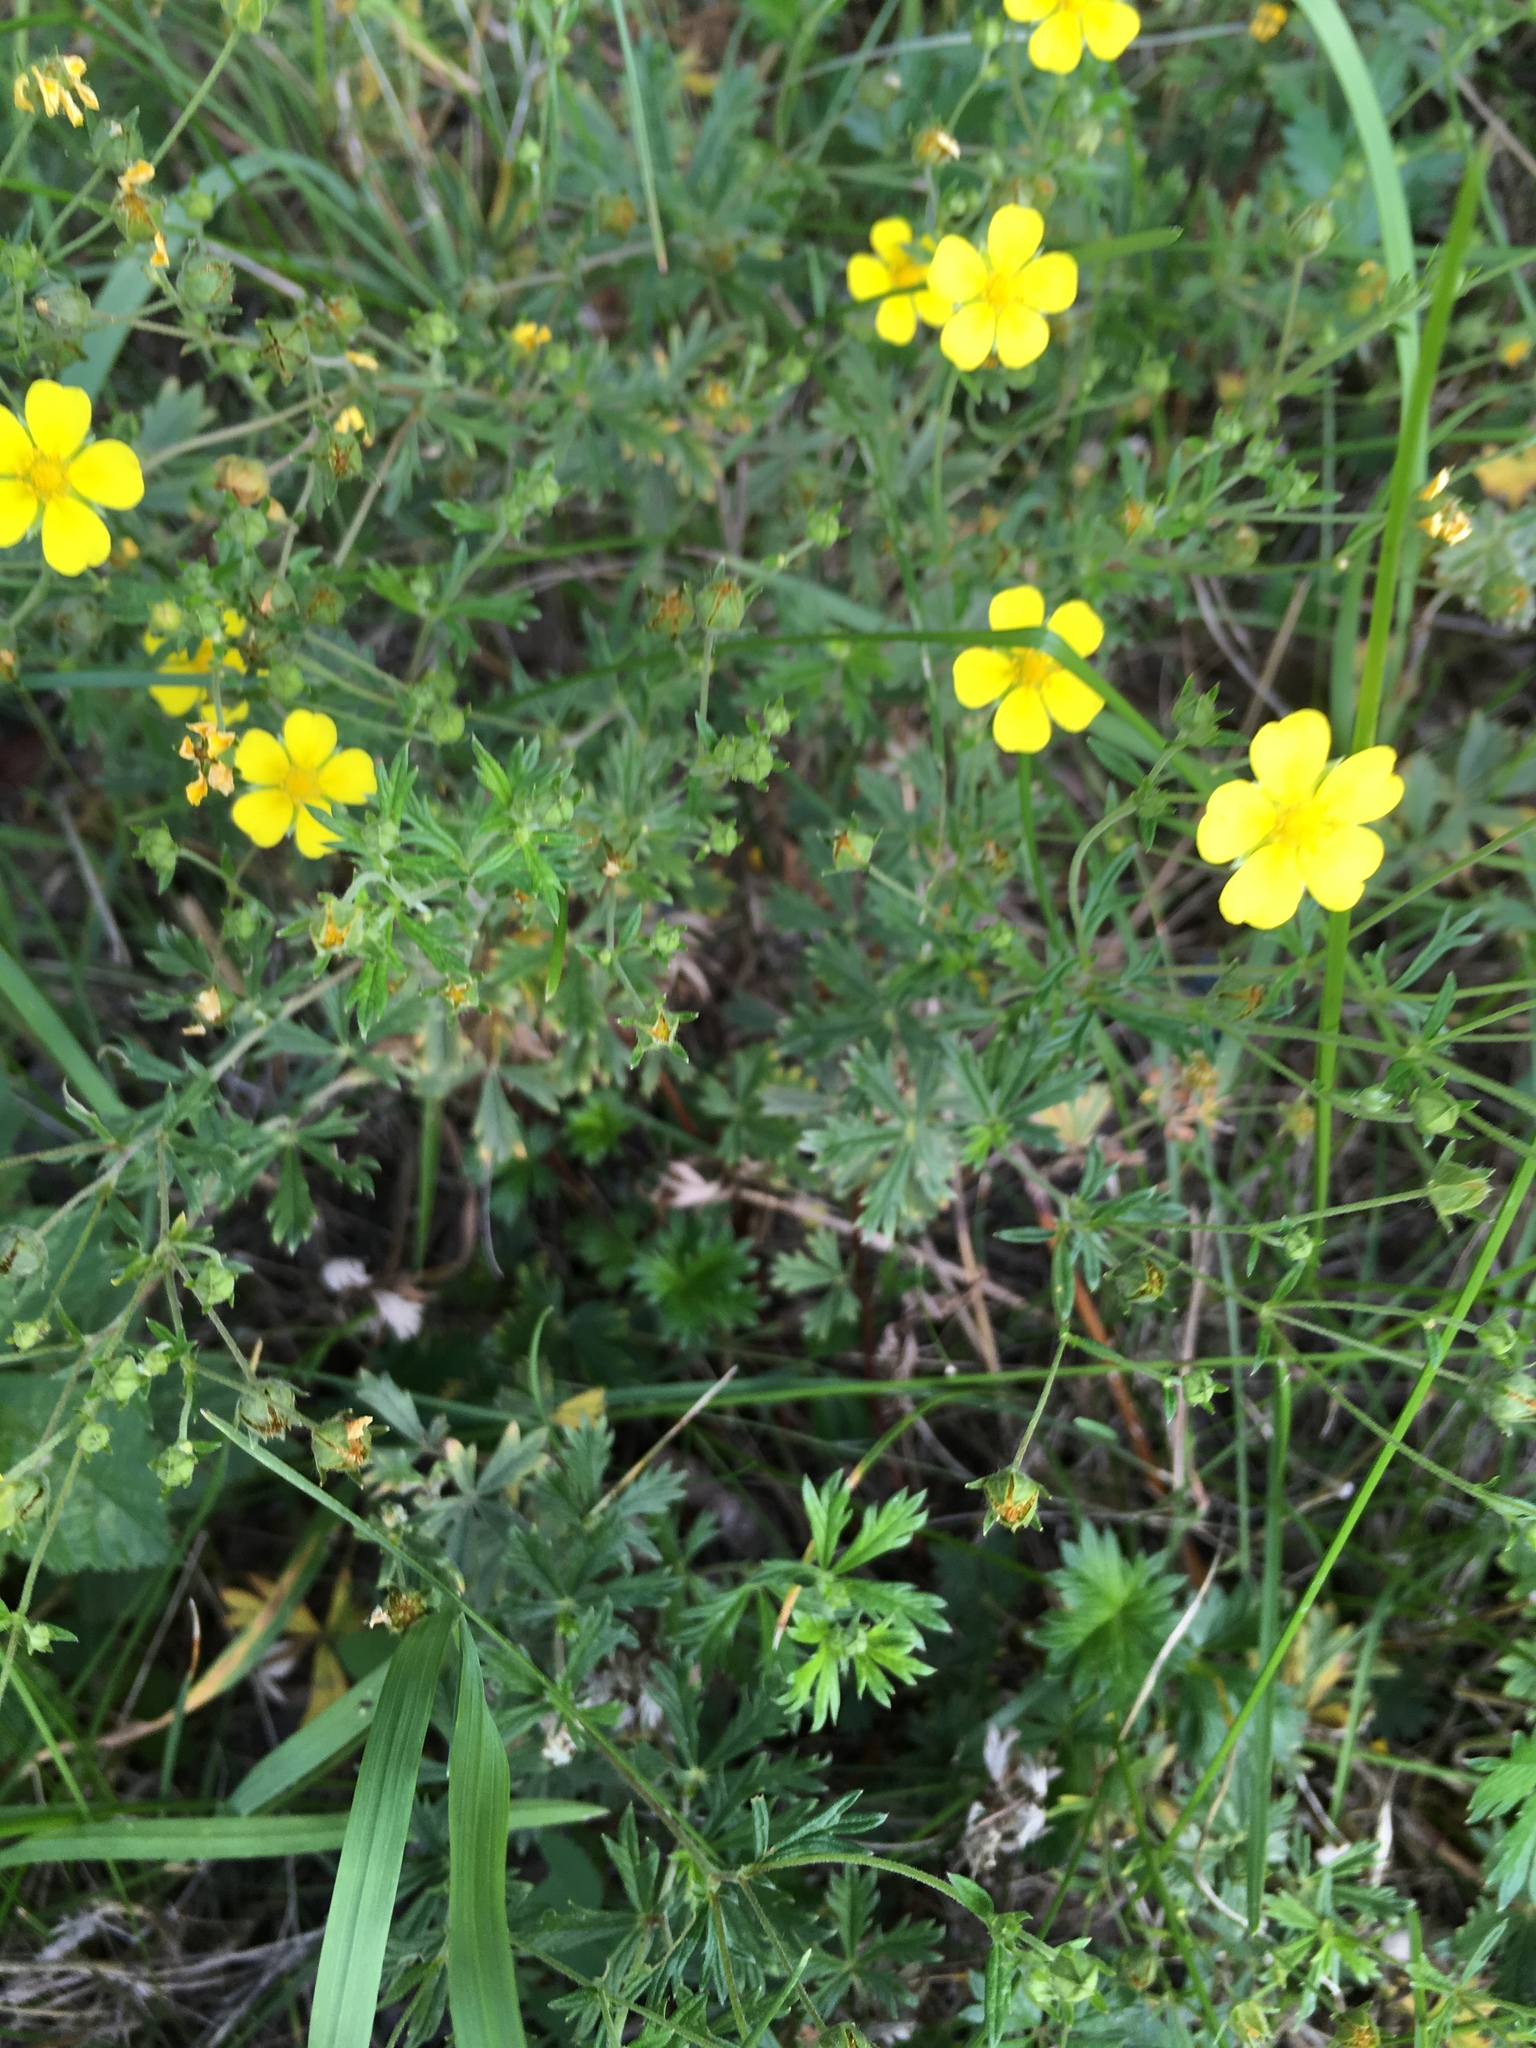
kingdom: Plantae
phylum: Tracheophyta
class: Magnoliopsida
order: Rosales
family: Rosaceae
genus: Potentilla
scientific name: Potentilla argentea
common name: Hoary cinquefoil
